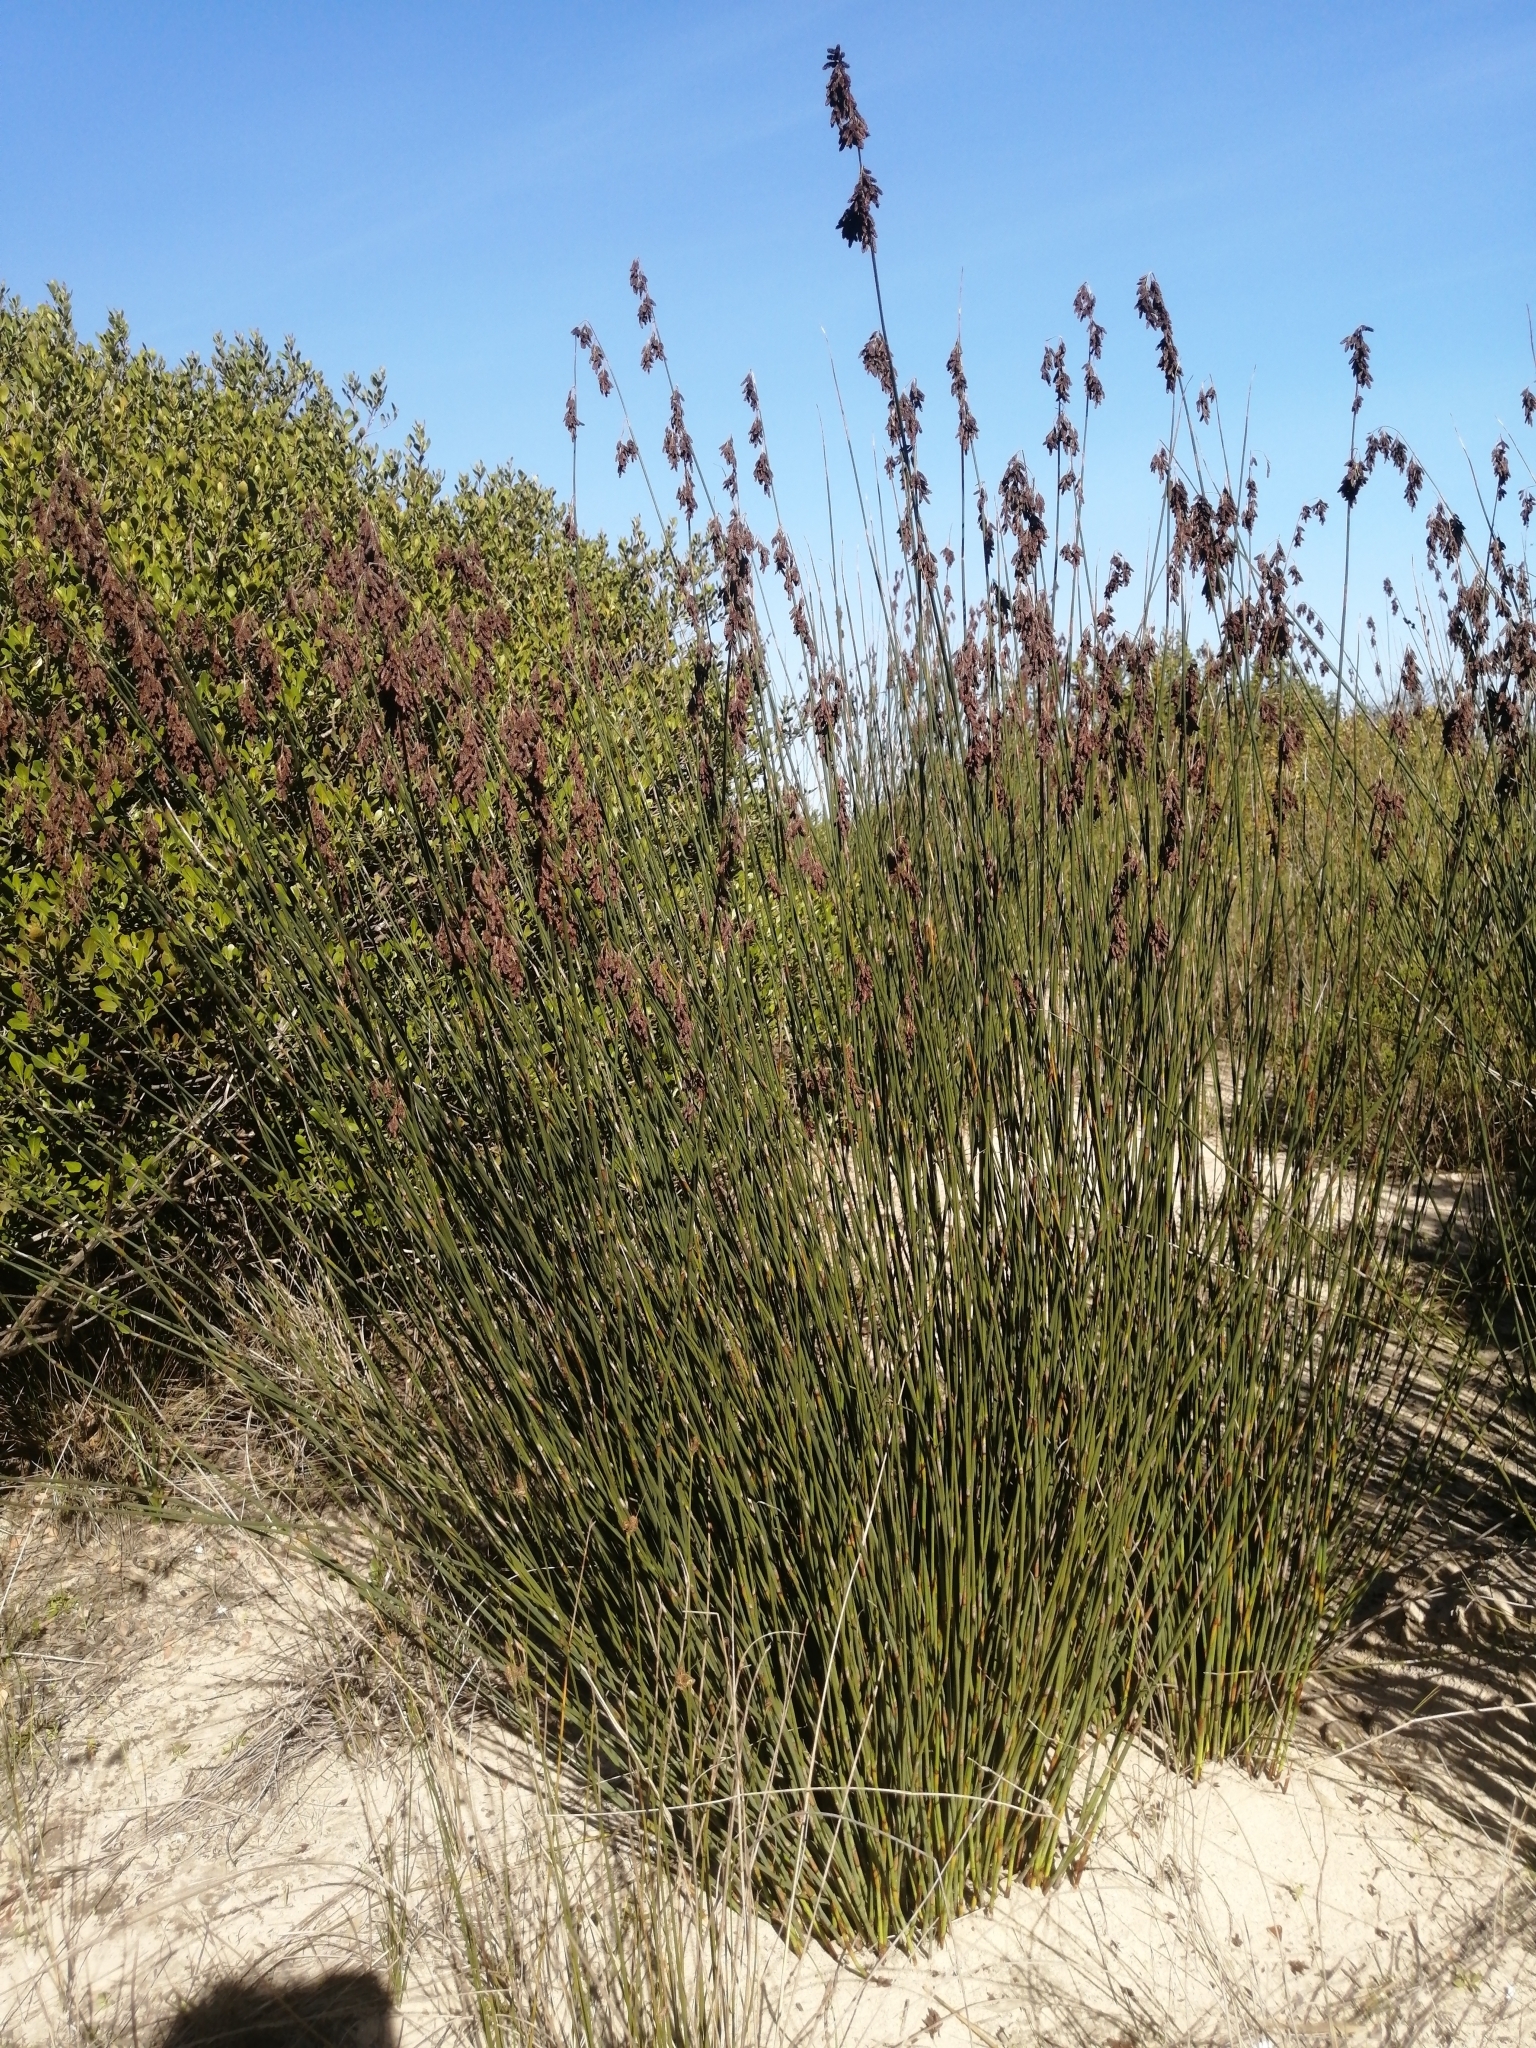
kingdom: Plantae
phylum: Tracheophyta
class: Liliopsida
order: Poales
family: Restionaceae
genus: Thamnochortus
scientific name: Thamnochortus spicigerus
